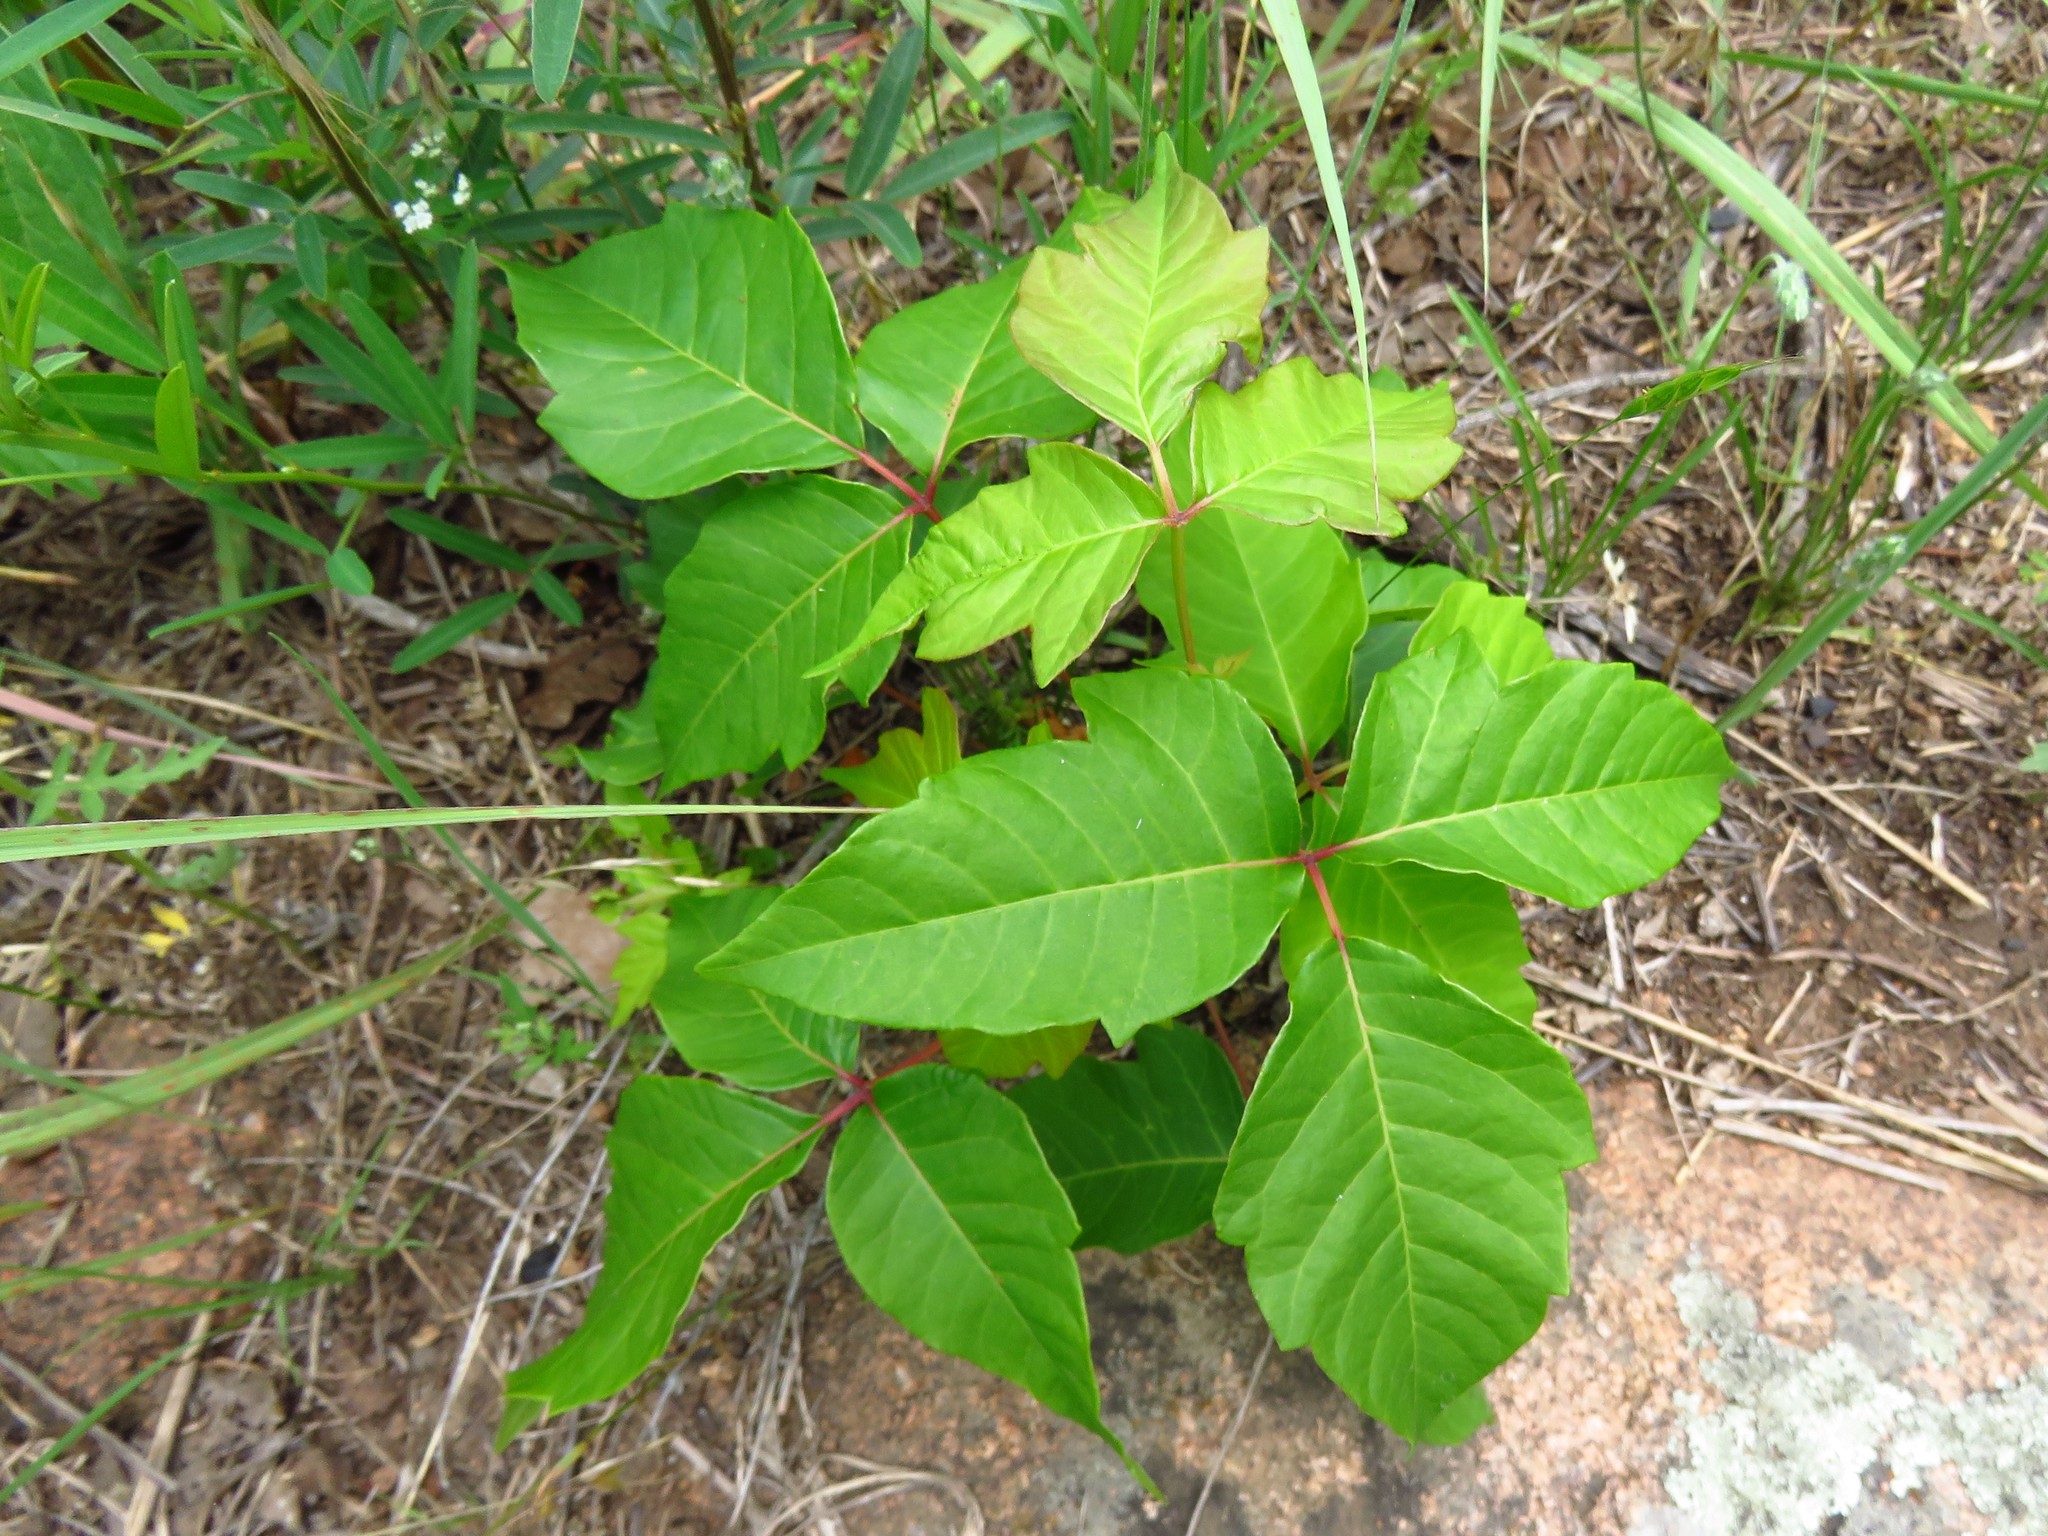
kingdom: Plantae
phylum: Tracheophyta
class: Magnoliopsida
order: Sapindales
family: Anacardiaceae
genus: Toxicodendron
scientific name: Toxicodendron radicans
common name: Poison ivy
